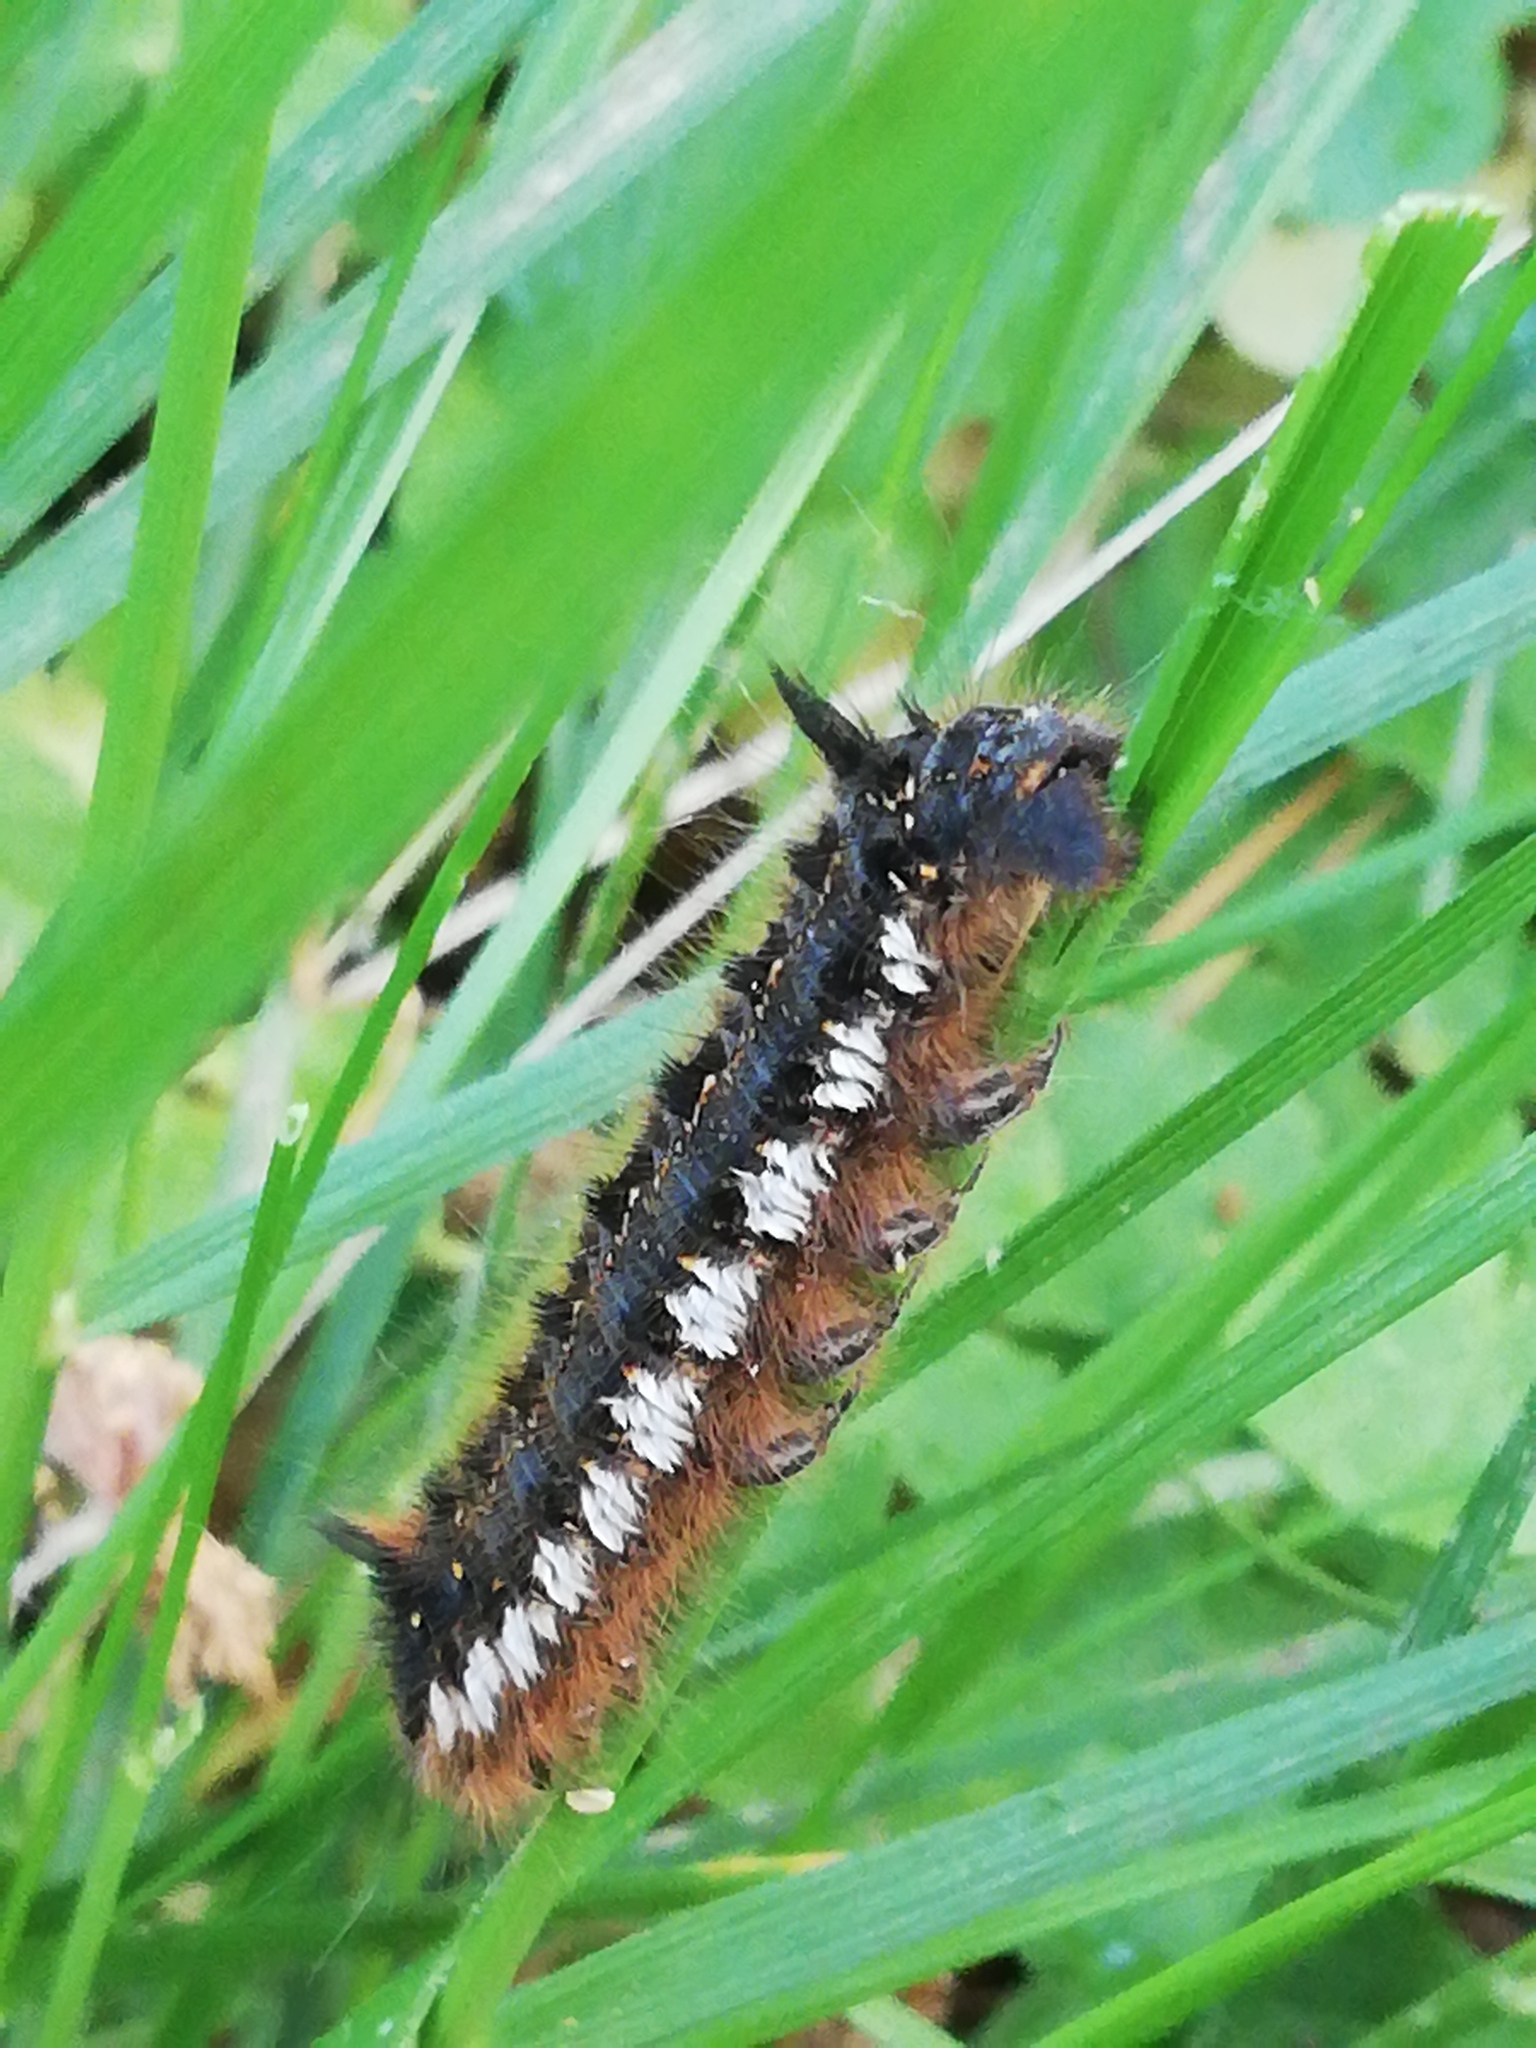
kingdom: Animalia
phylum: Arthropoda
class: Insecta
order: Lepidoptera
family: Lasiocampidae
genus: Euthrix
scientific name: Euthrix potatoria
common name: Drinker
